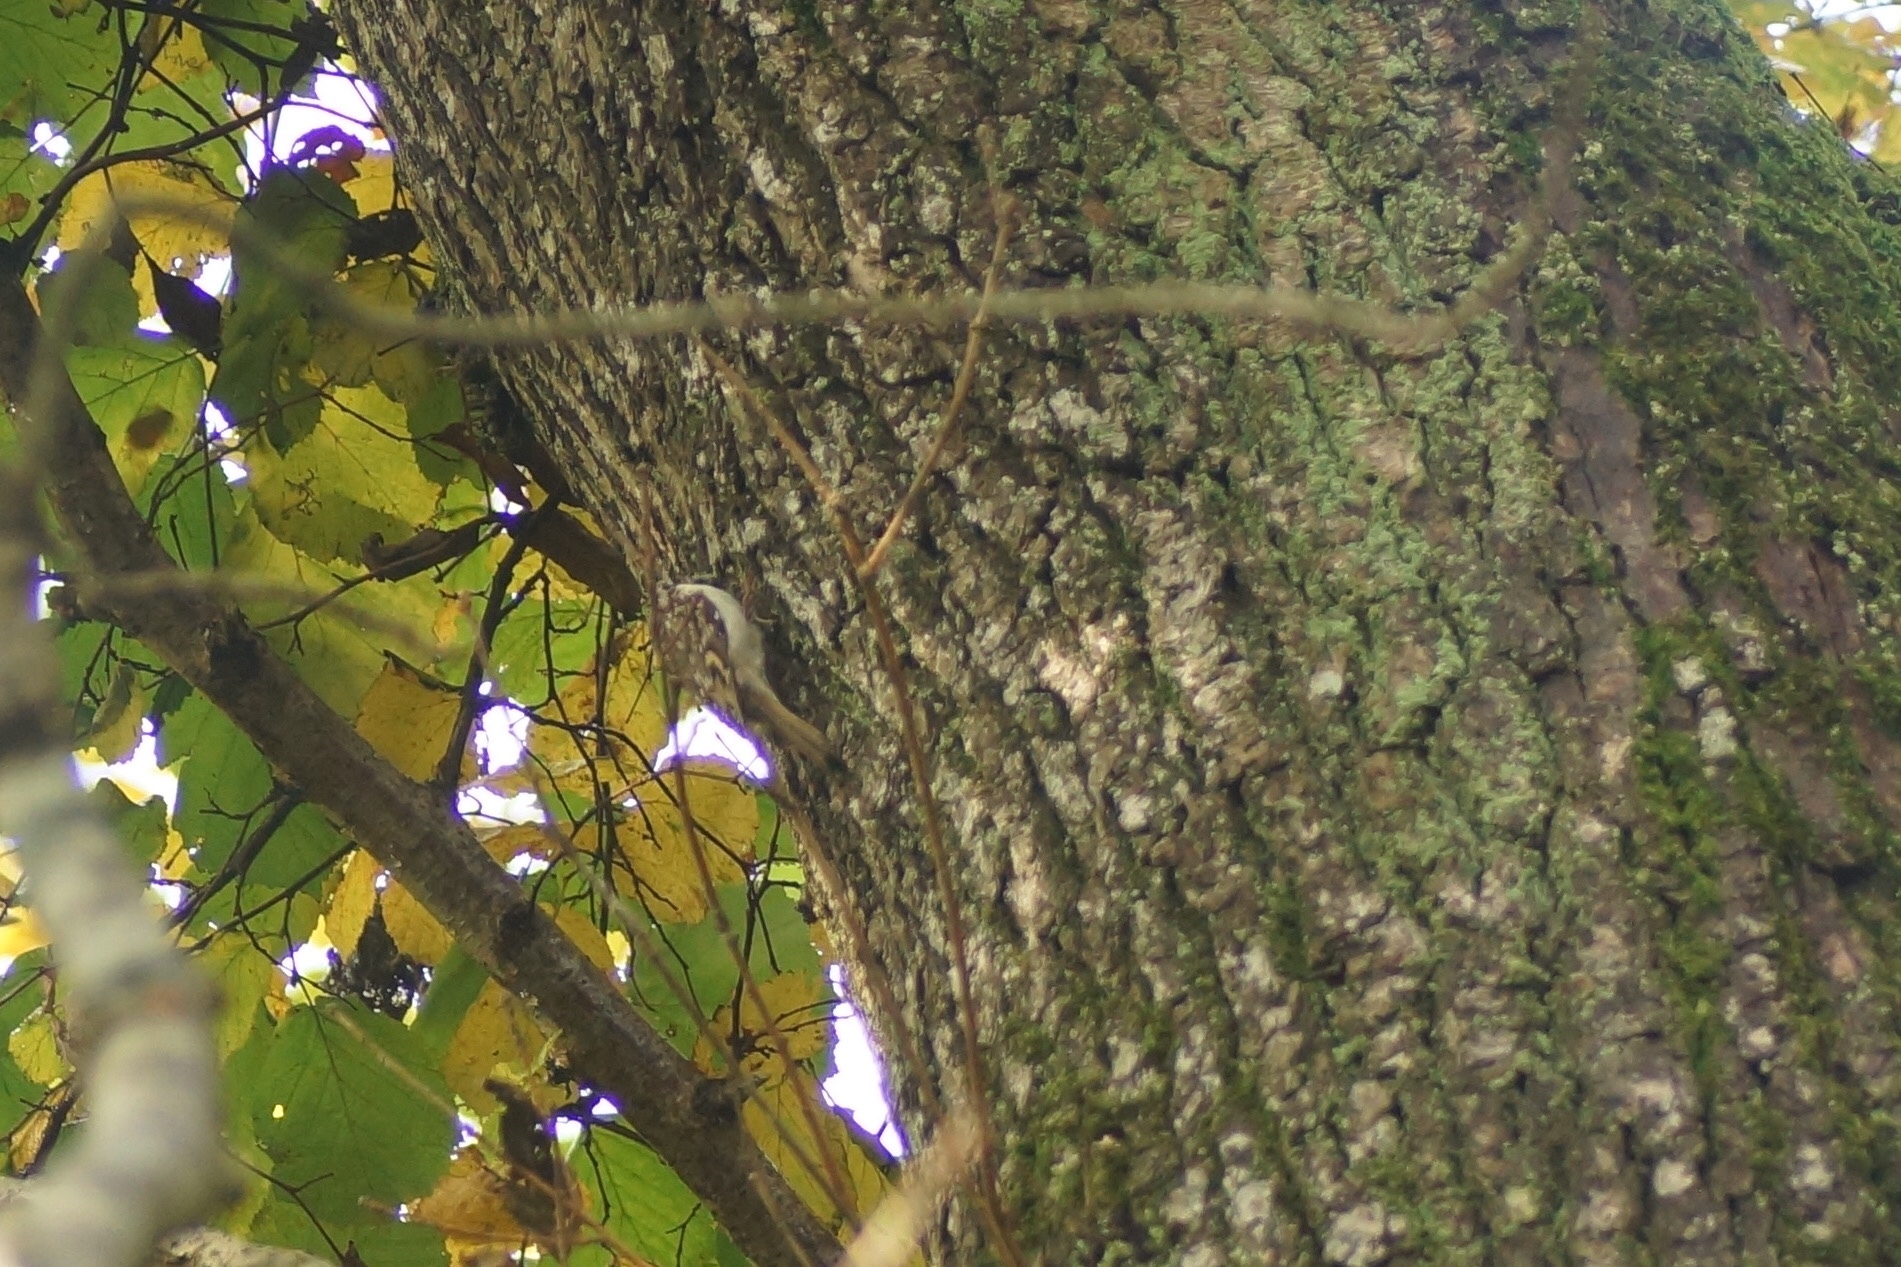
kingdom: Animalia
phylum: Chordata
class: Aves
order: Passeriformes
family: Certhiidae
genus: Certhia
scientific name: Certhia familiaris
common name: Eurasian treecreeper
